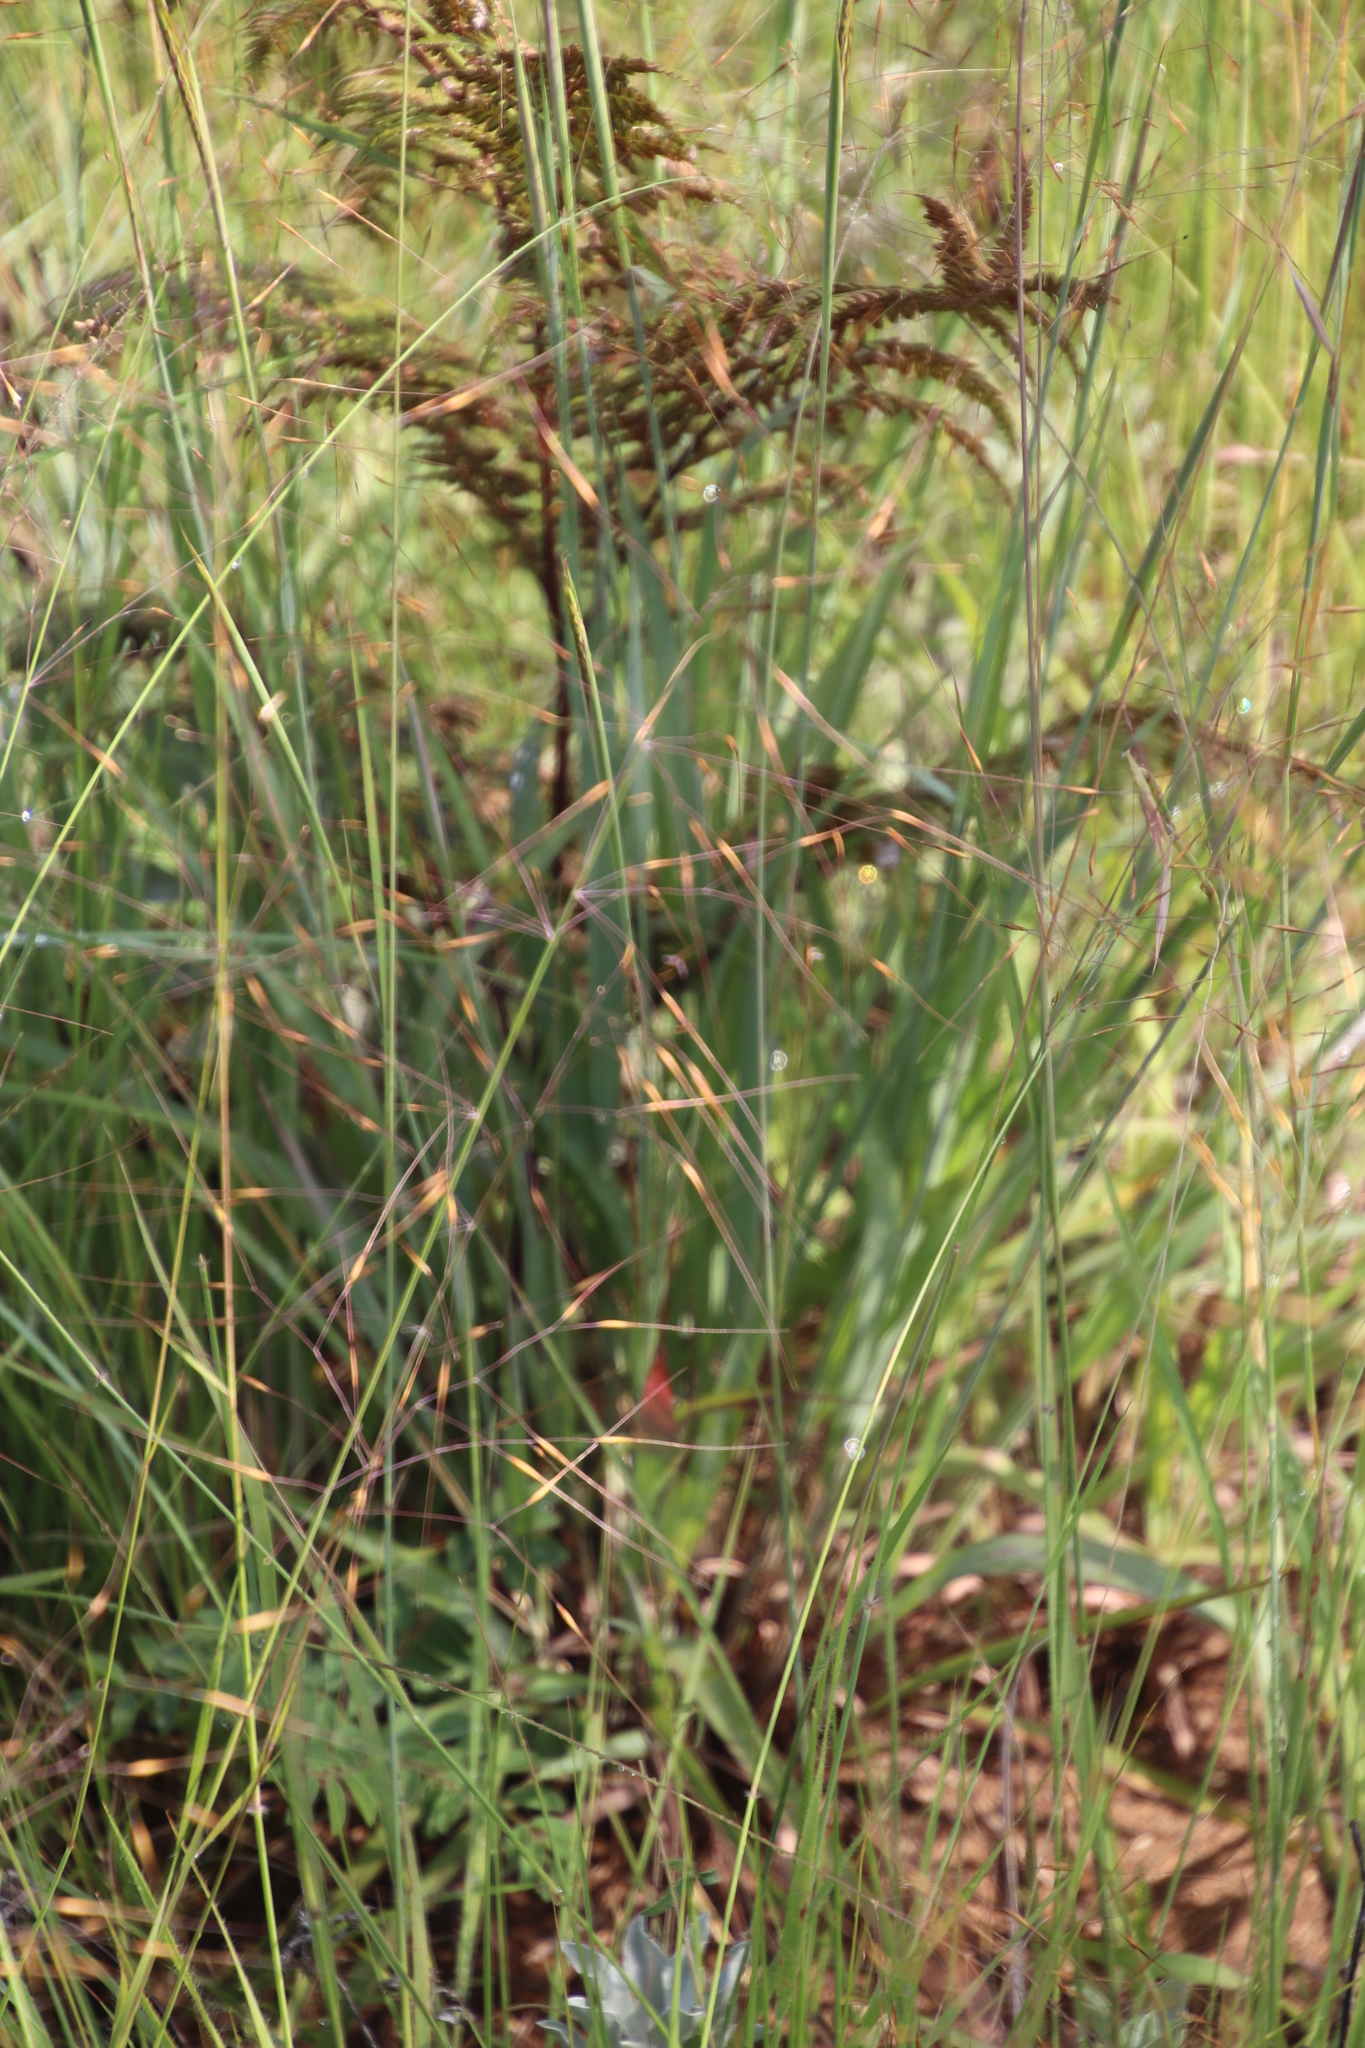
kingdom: Plantae
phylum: Tracheophyta
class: Liliopsida
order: Poales
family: Poaceae
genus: Loudetia
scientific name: Loudetia flavida
